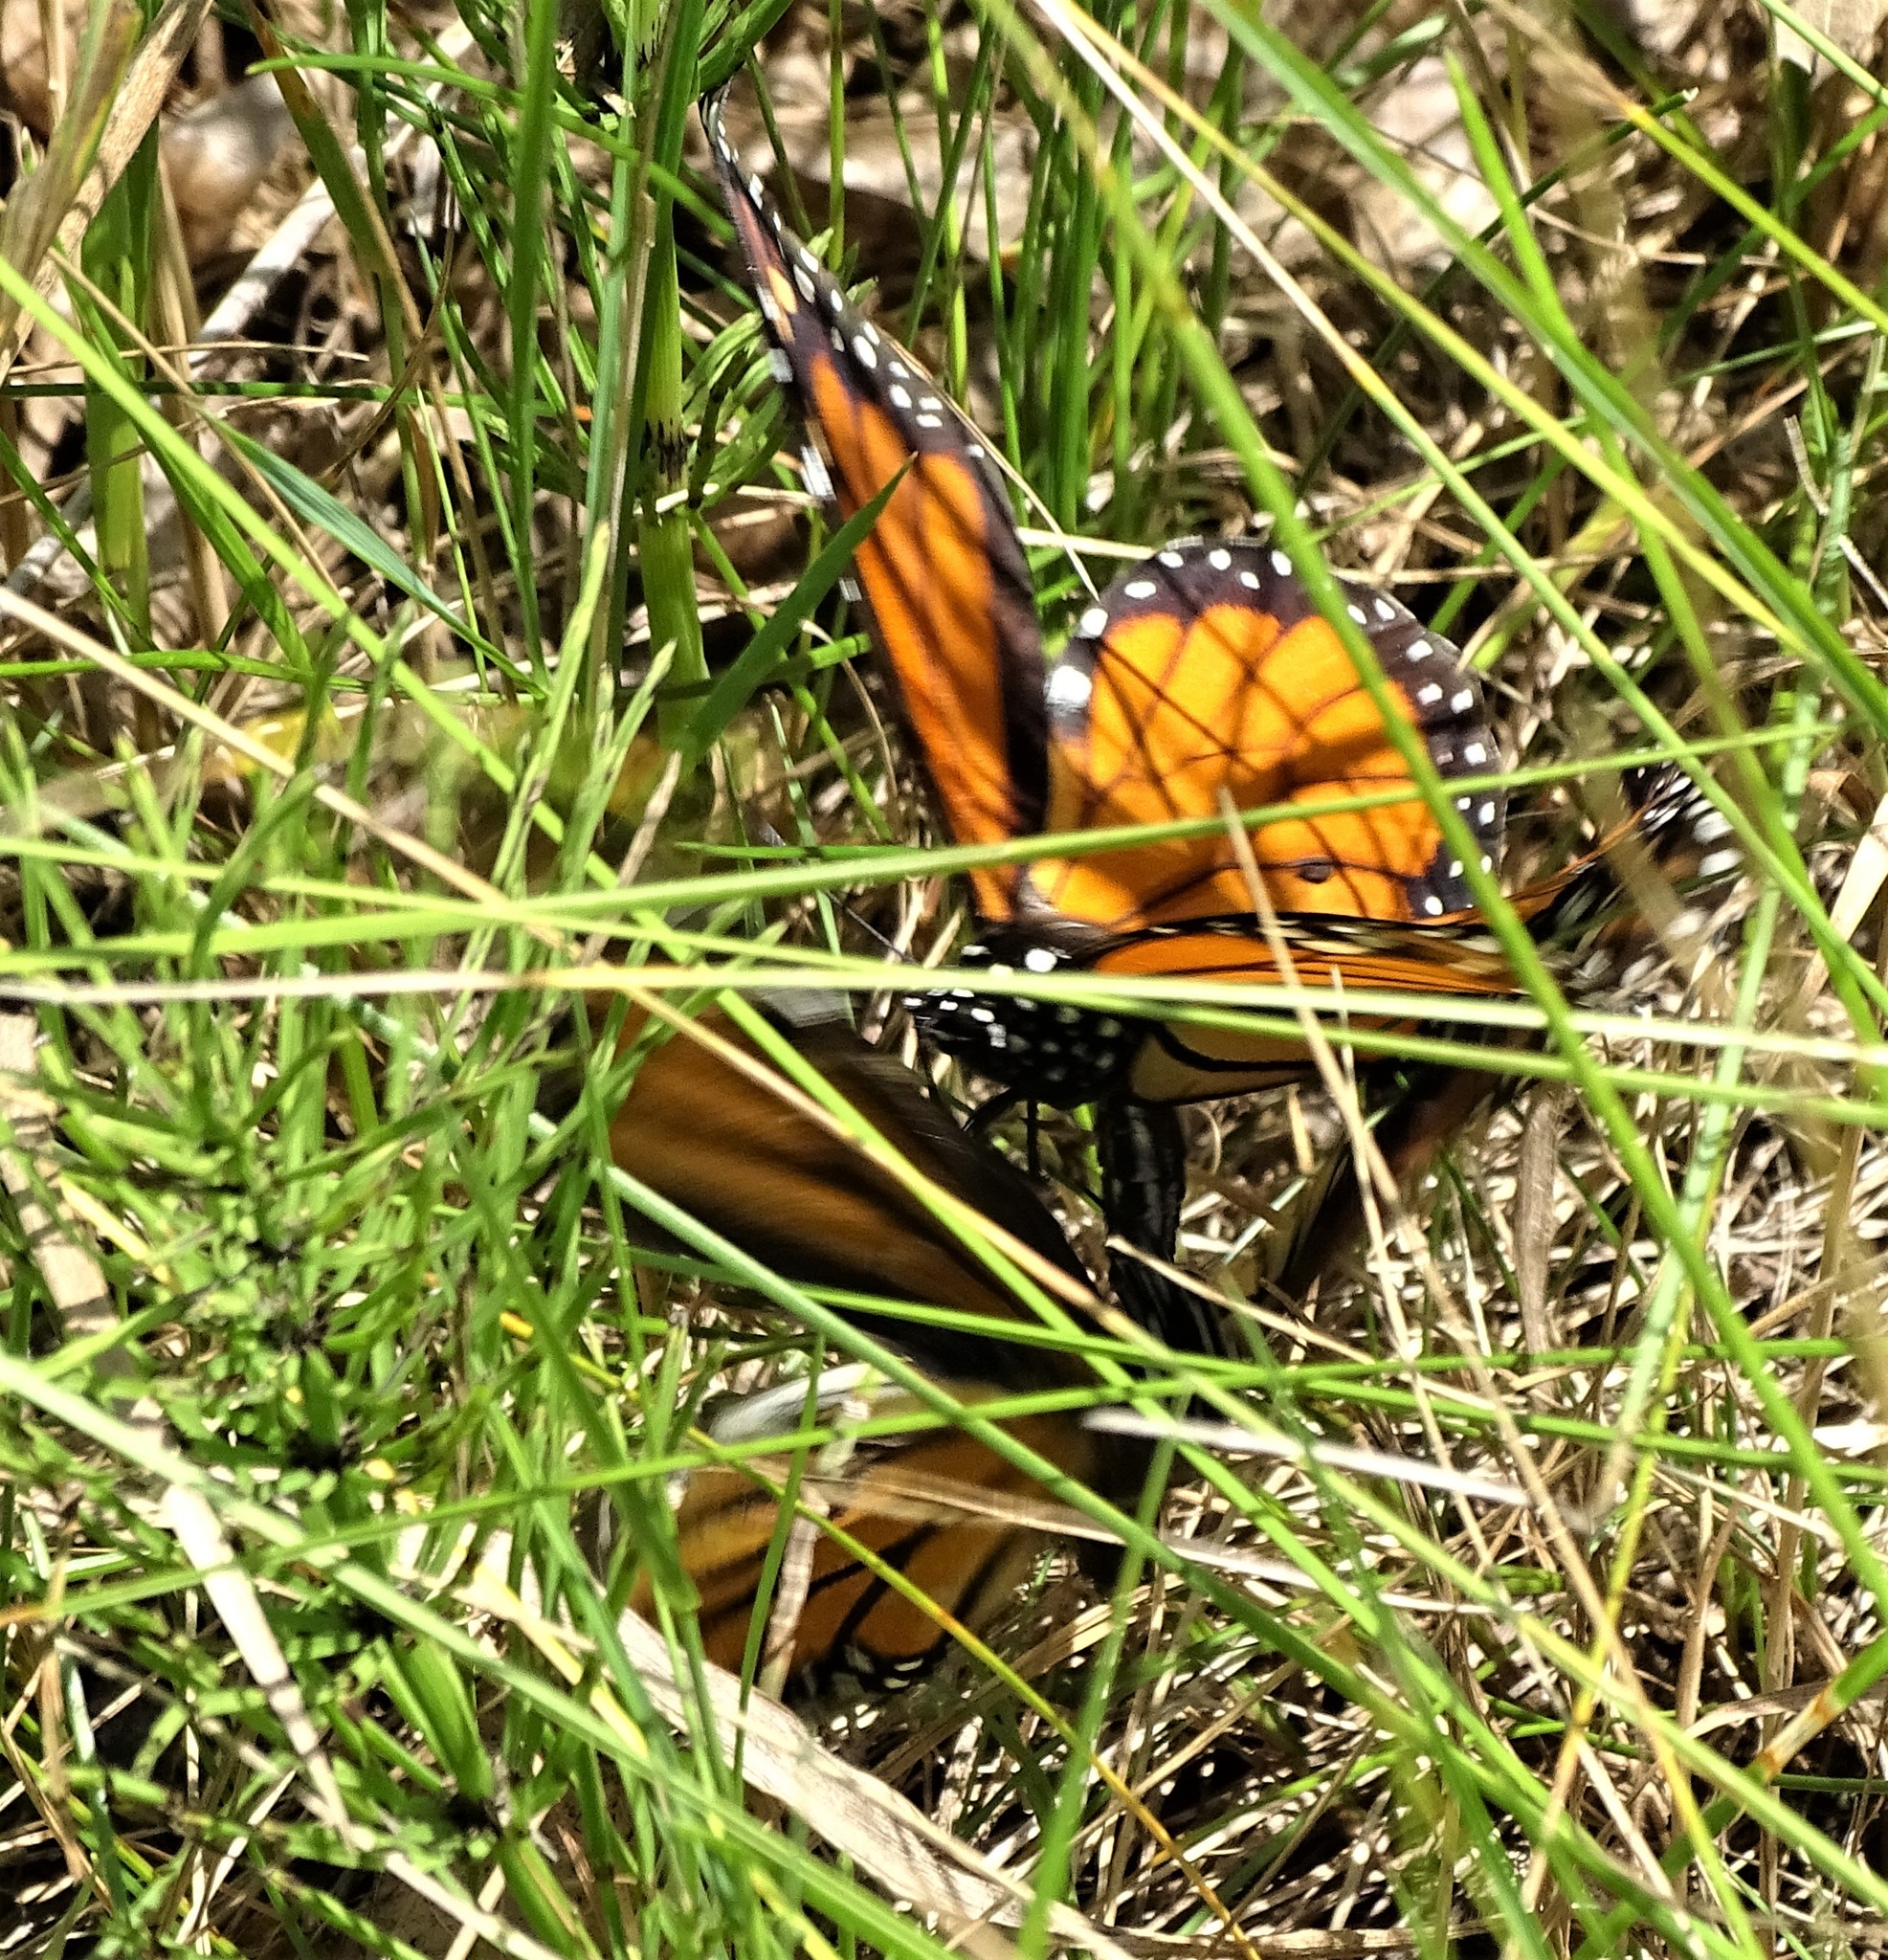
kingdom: Animalia
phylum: Arthropoda
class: Insecta
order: Lepidoptera
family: Nymphalidae
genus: Danaus
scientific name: Danaus plexippus
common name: Monarch
